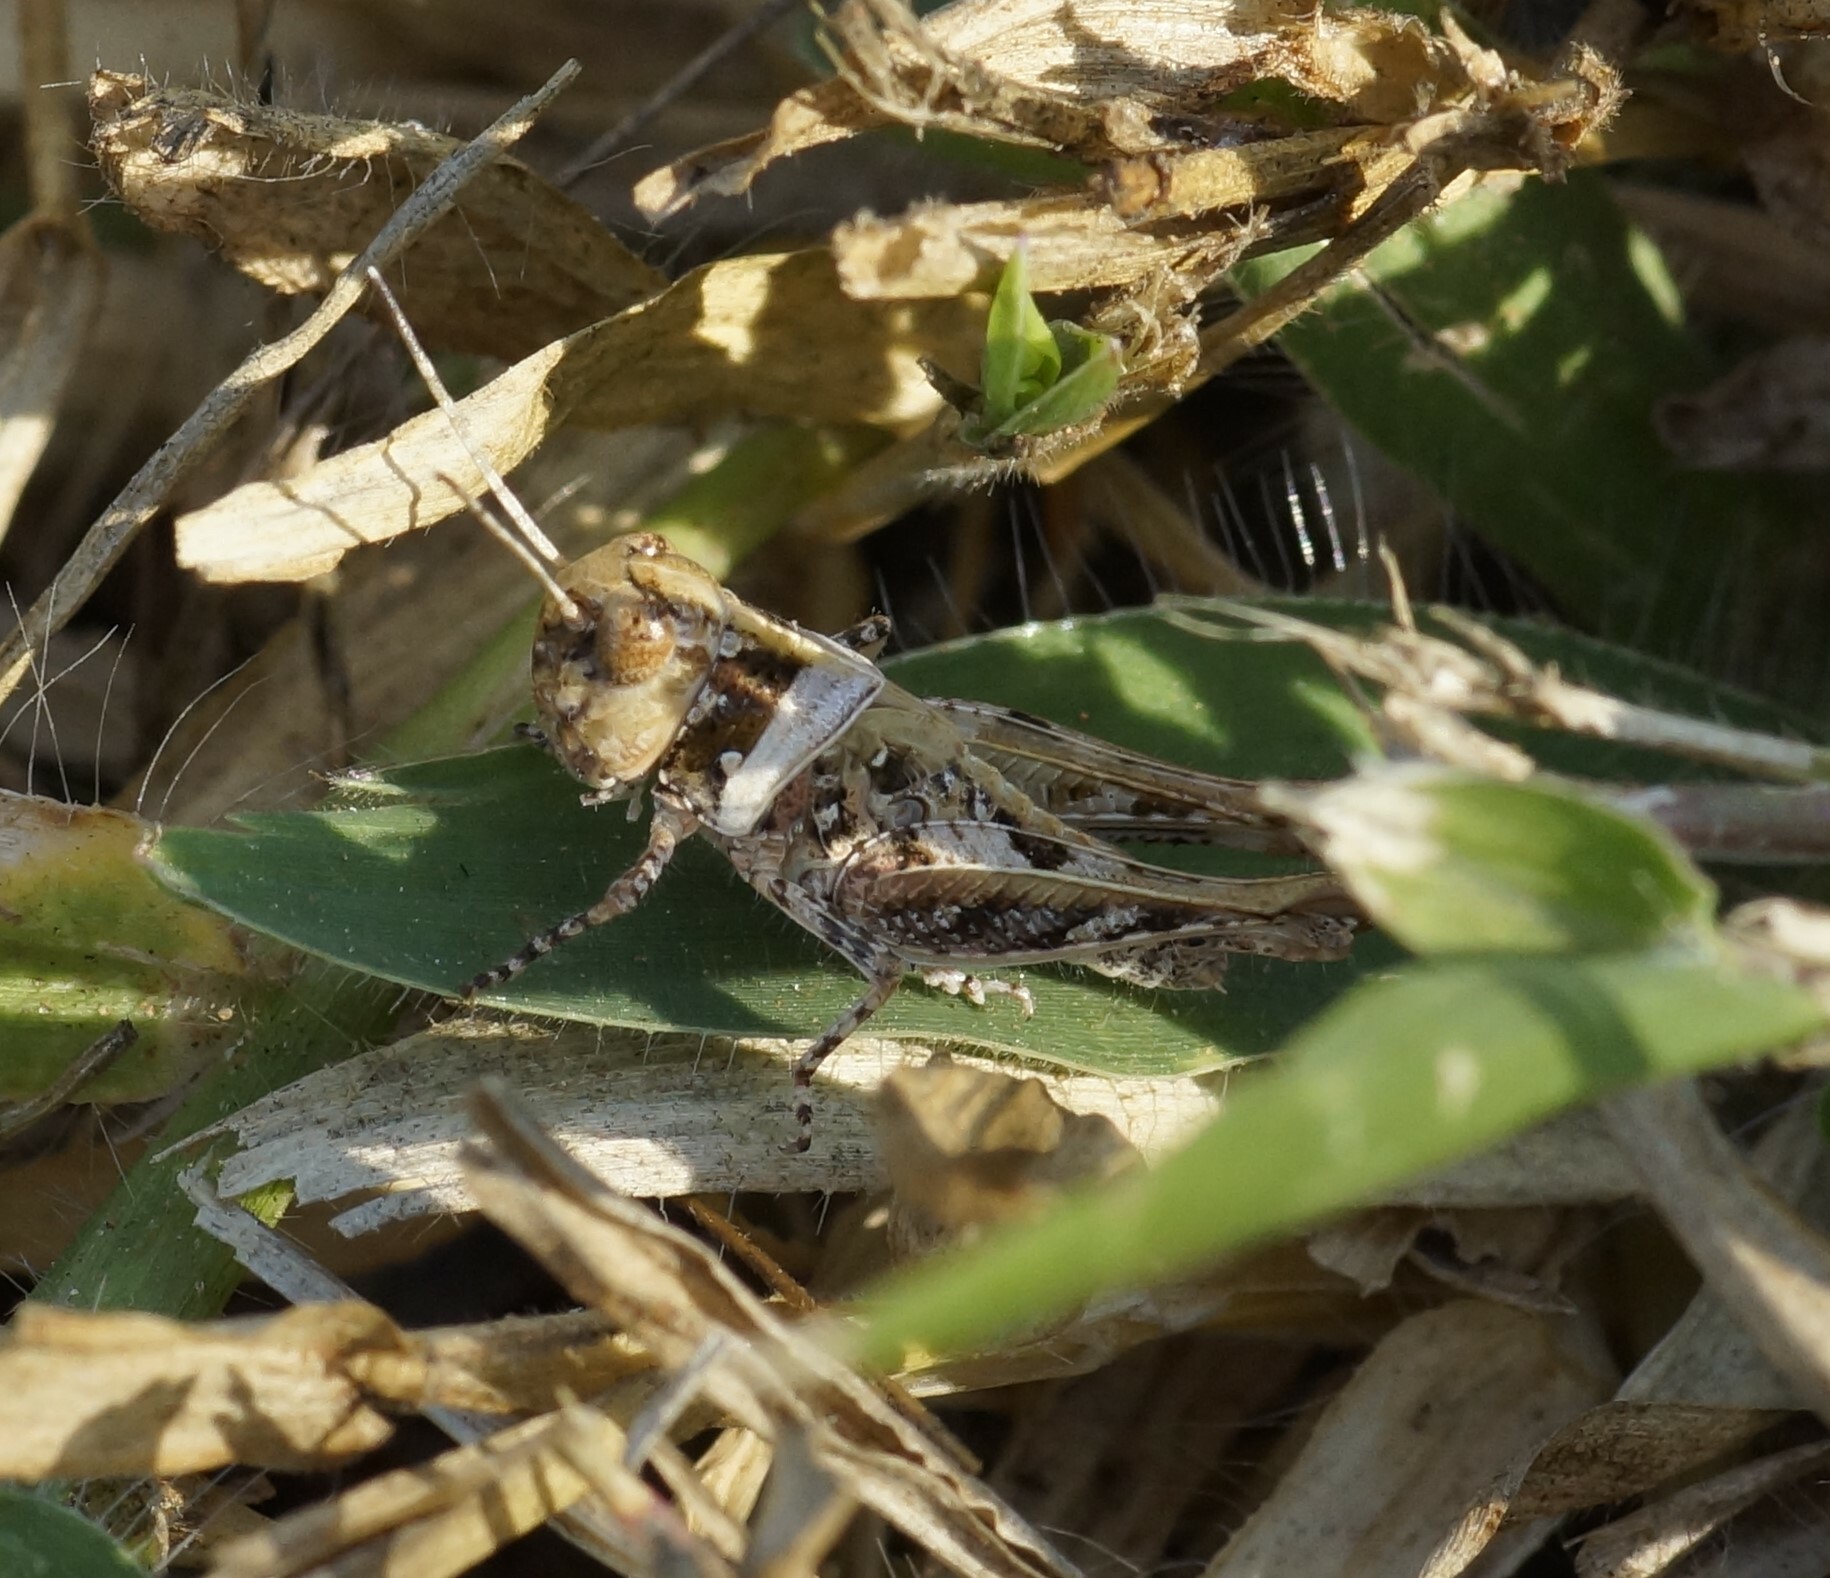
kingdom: Animalia
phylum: Arthropoda
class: Insecta
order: Orthoptera
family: Acrididae
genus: Heteropternis
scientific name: Heteropternis obscurella
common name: Long-legged bandwing
